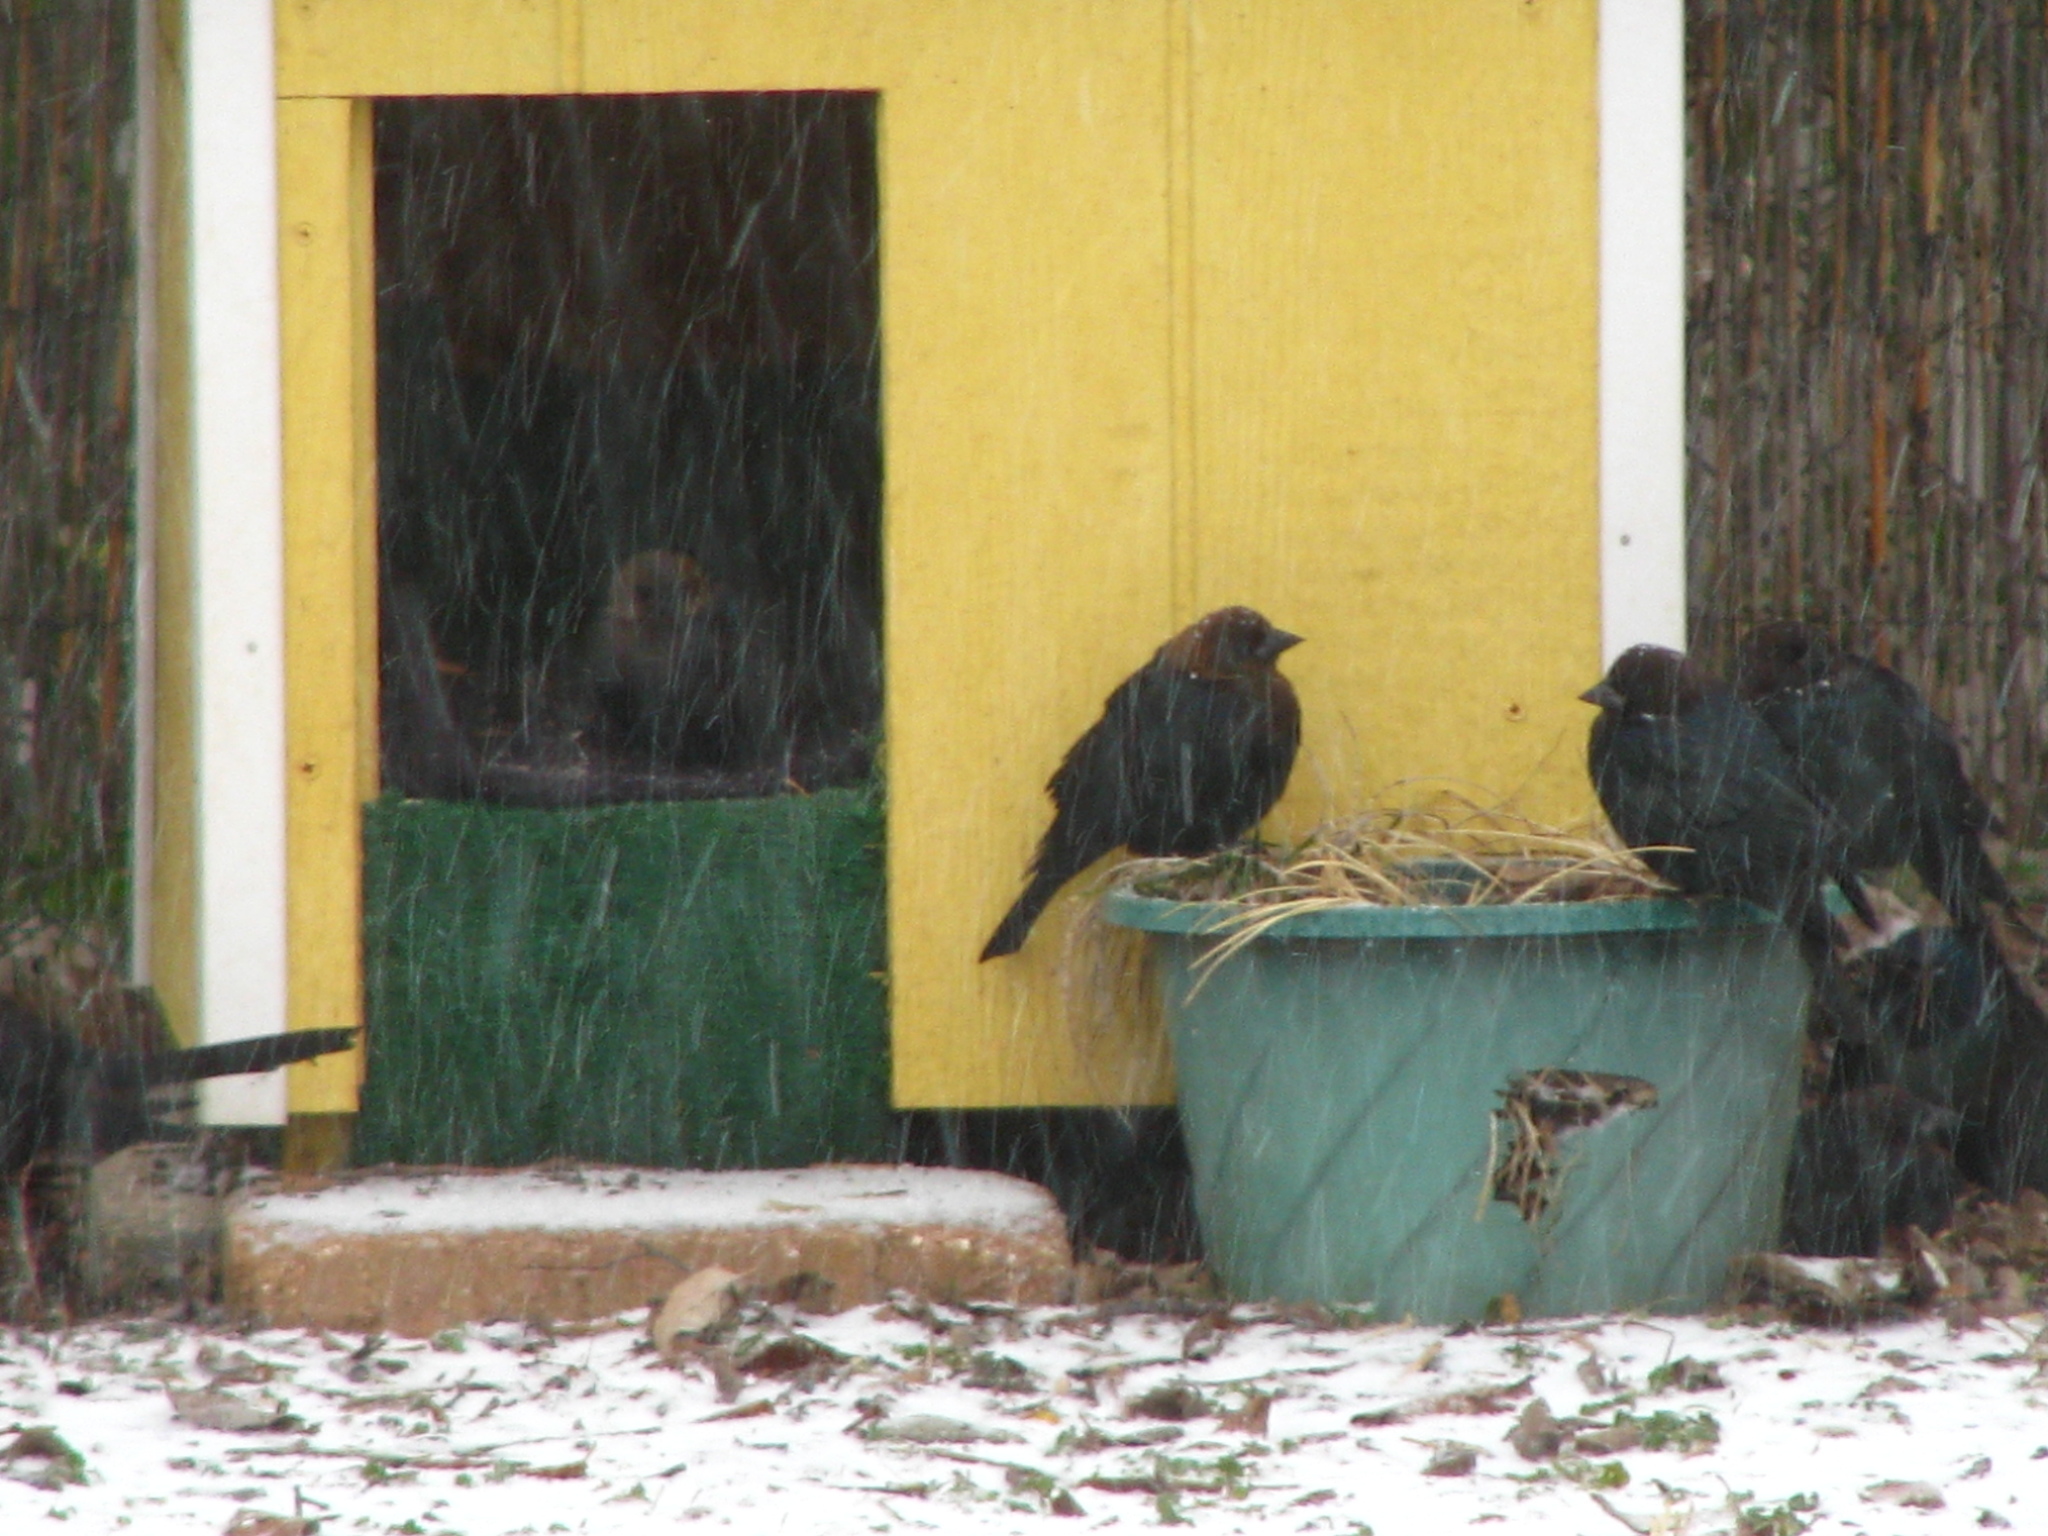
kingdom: Animalia
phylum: Chordata
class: Aves
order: Passeriformes
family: Icteridae
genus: Molothrus
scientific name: Molothrus ater
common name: Brown-headed cowbird
